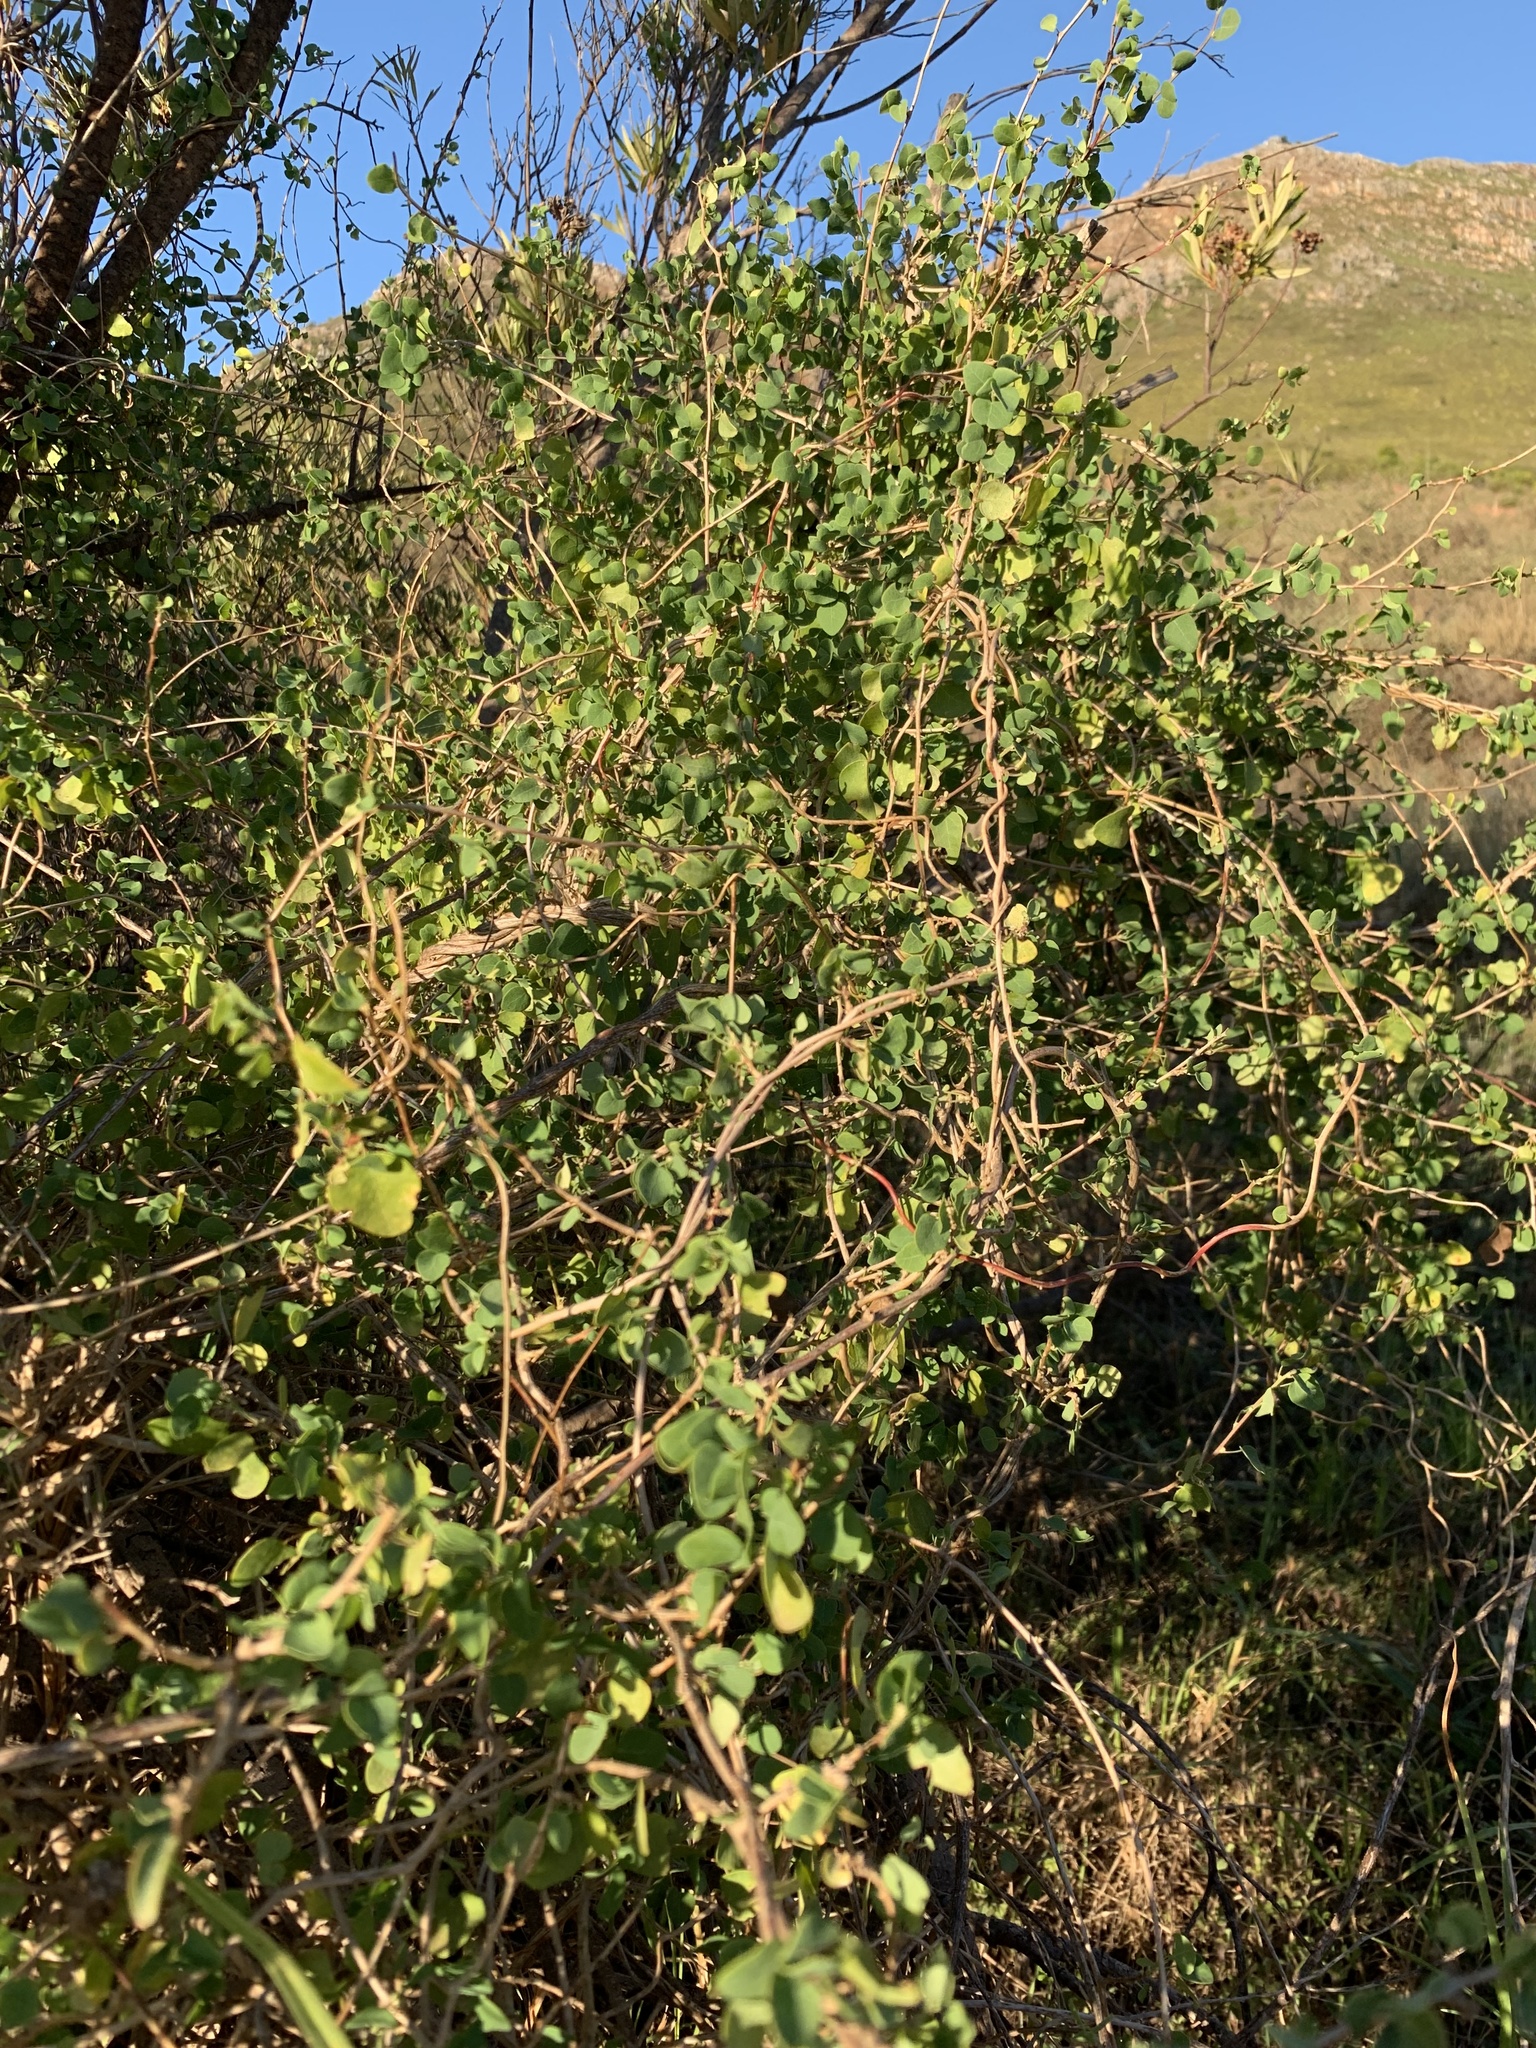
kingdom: Plantae
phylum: Tracheophyta
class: Magnoliopsida
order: Ranunculales
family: Menispermaceae
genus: Cissampelos
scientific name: Cissampelos capensis
